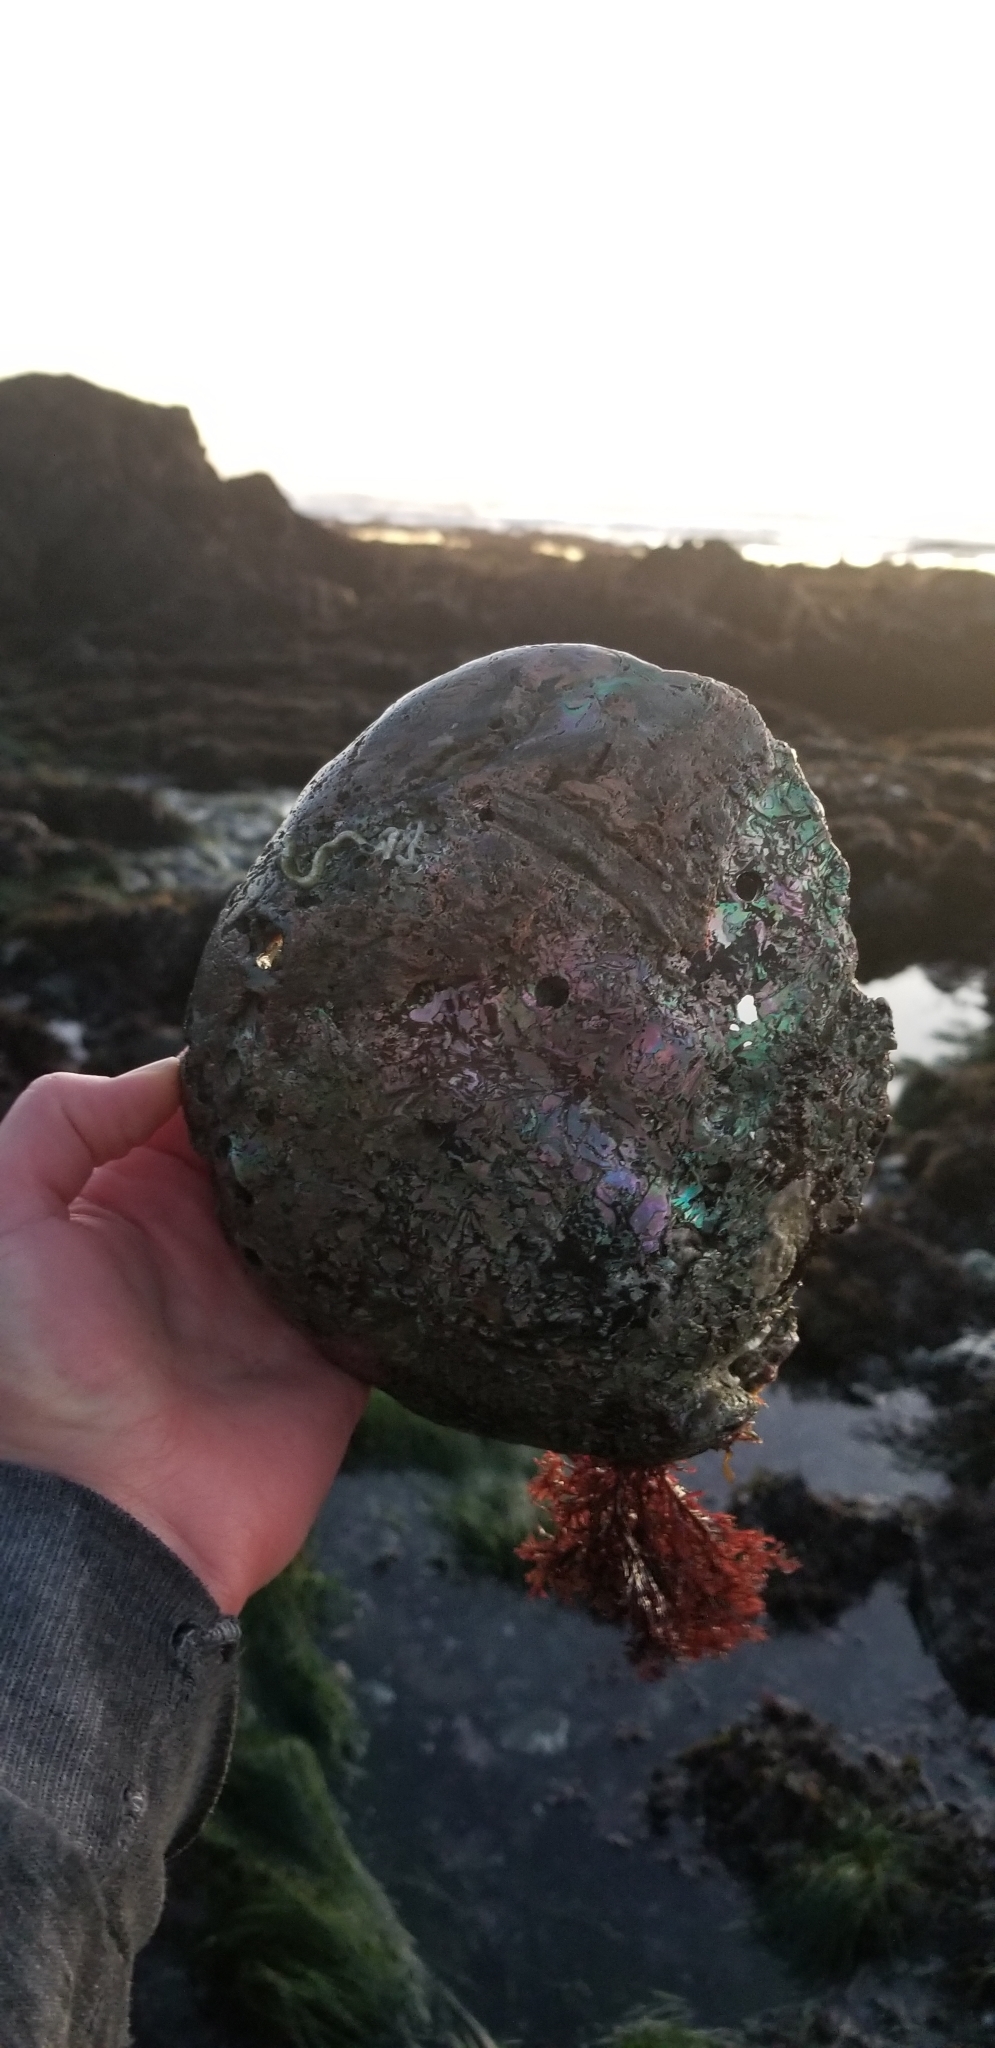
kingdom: Animalia
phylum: Mollusca
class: Gastropoda
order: Lepetellida
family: Haliotidae
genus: Haliotis
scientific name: Haliotis rufescens
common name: Red abalone
